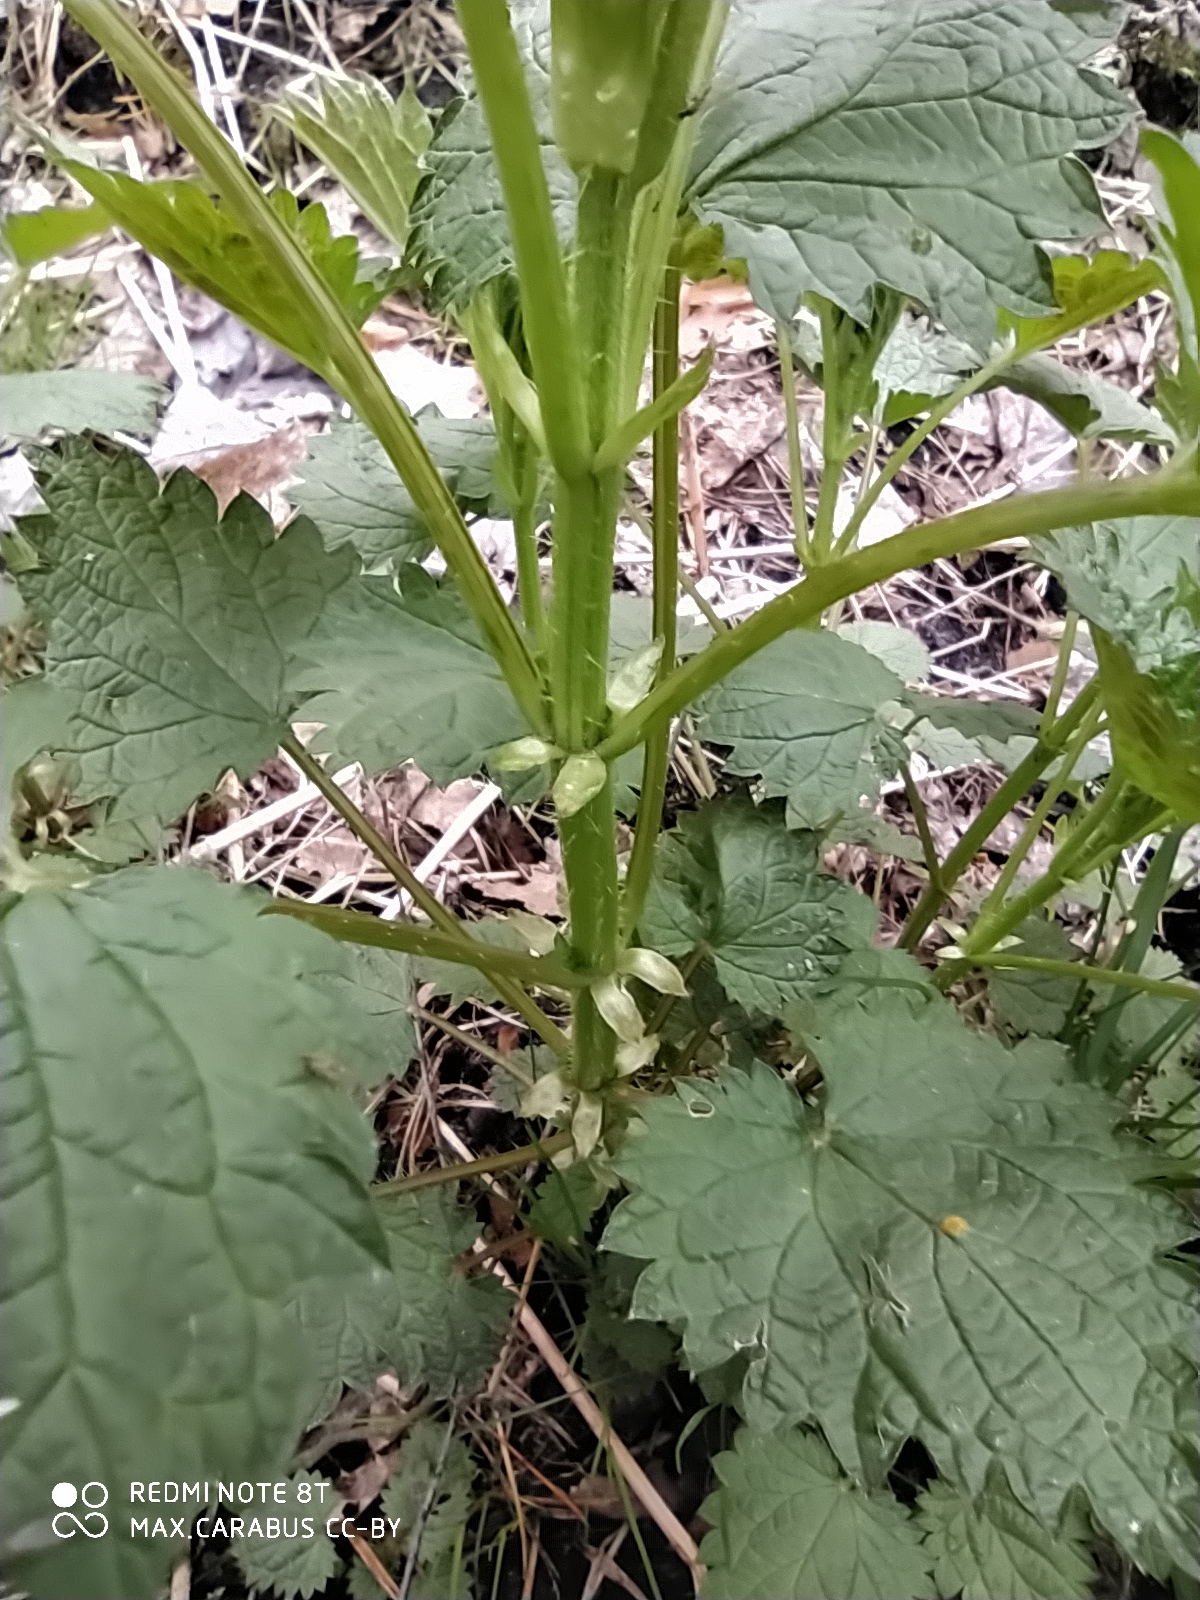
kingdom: Plantae
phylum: Tracheophyta
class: Magnoliopsida
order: Rosales
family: Urticaceae
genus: Urtica
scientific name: Urtica dioica
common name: Common nettle
